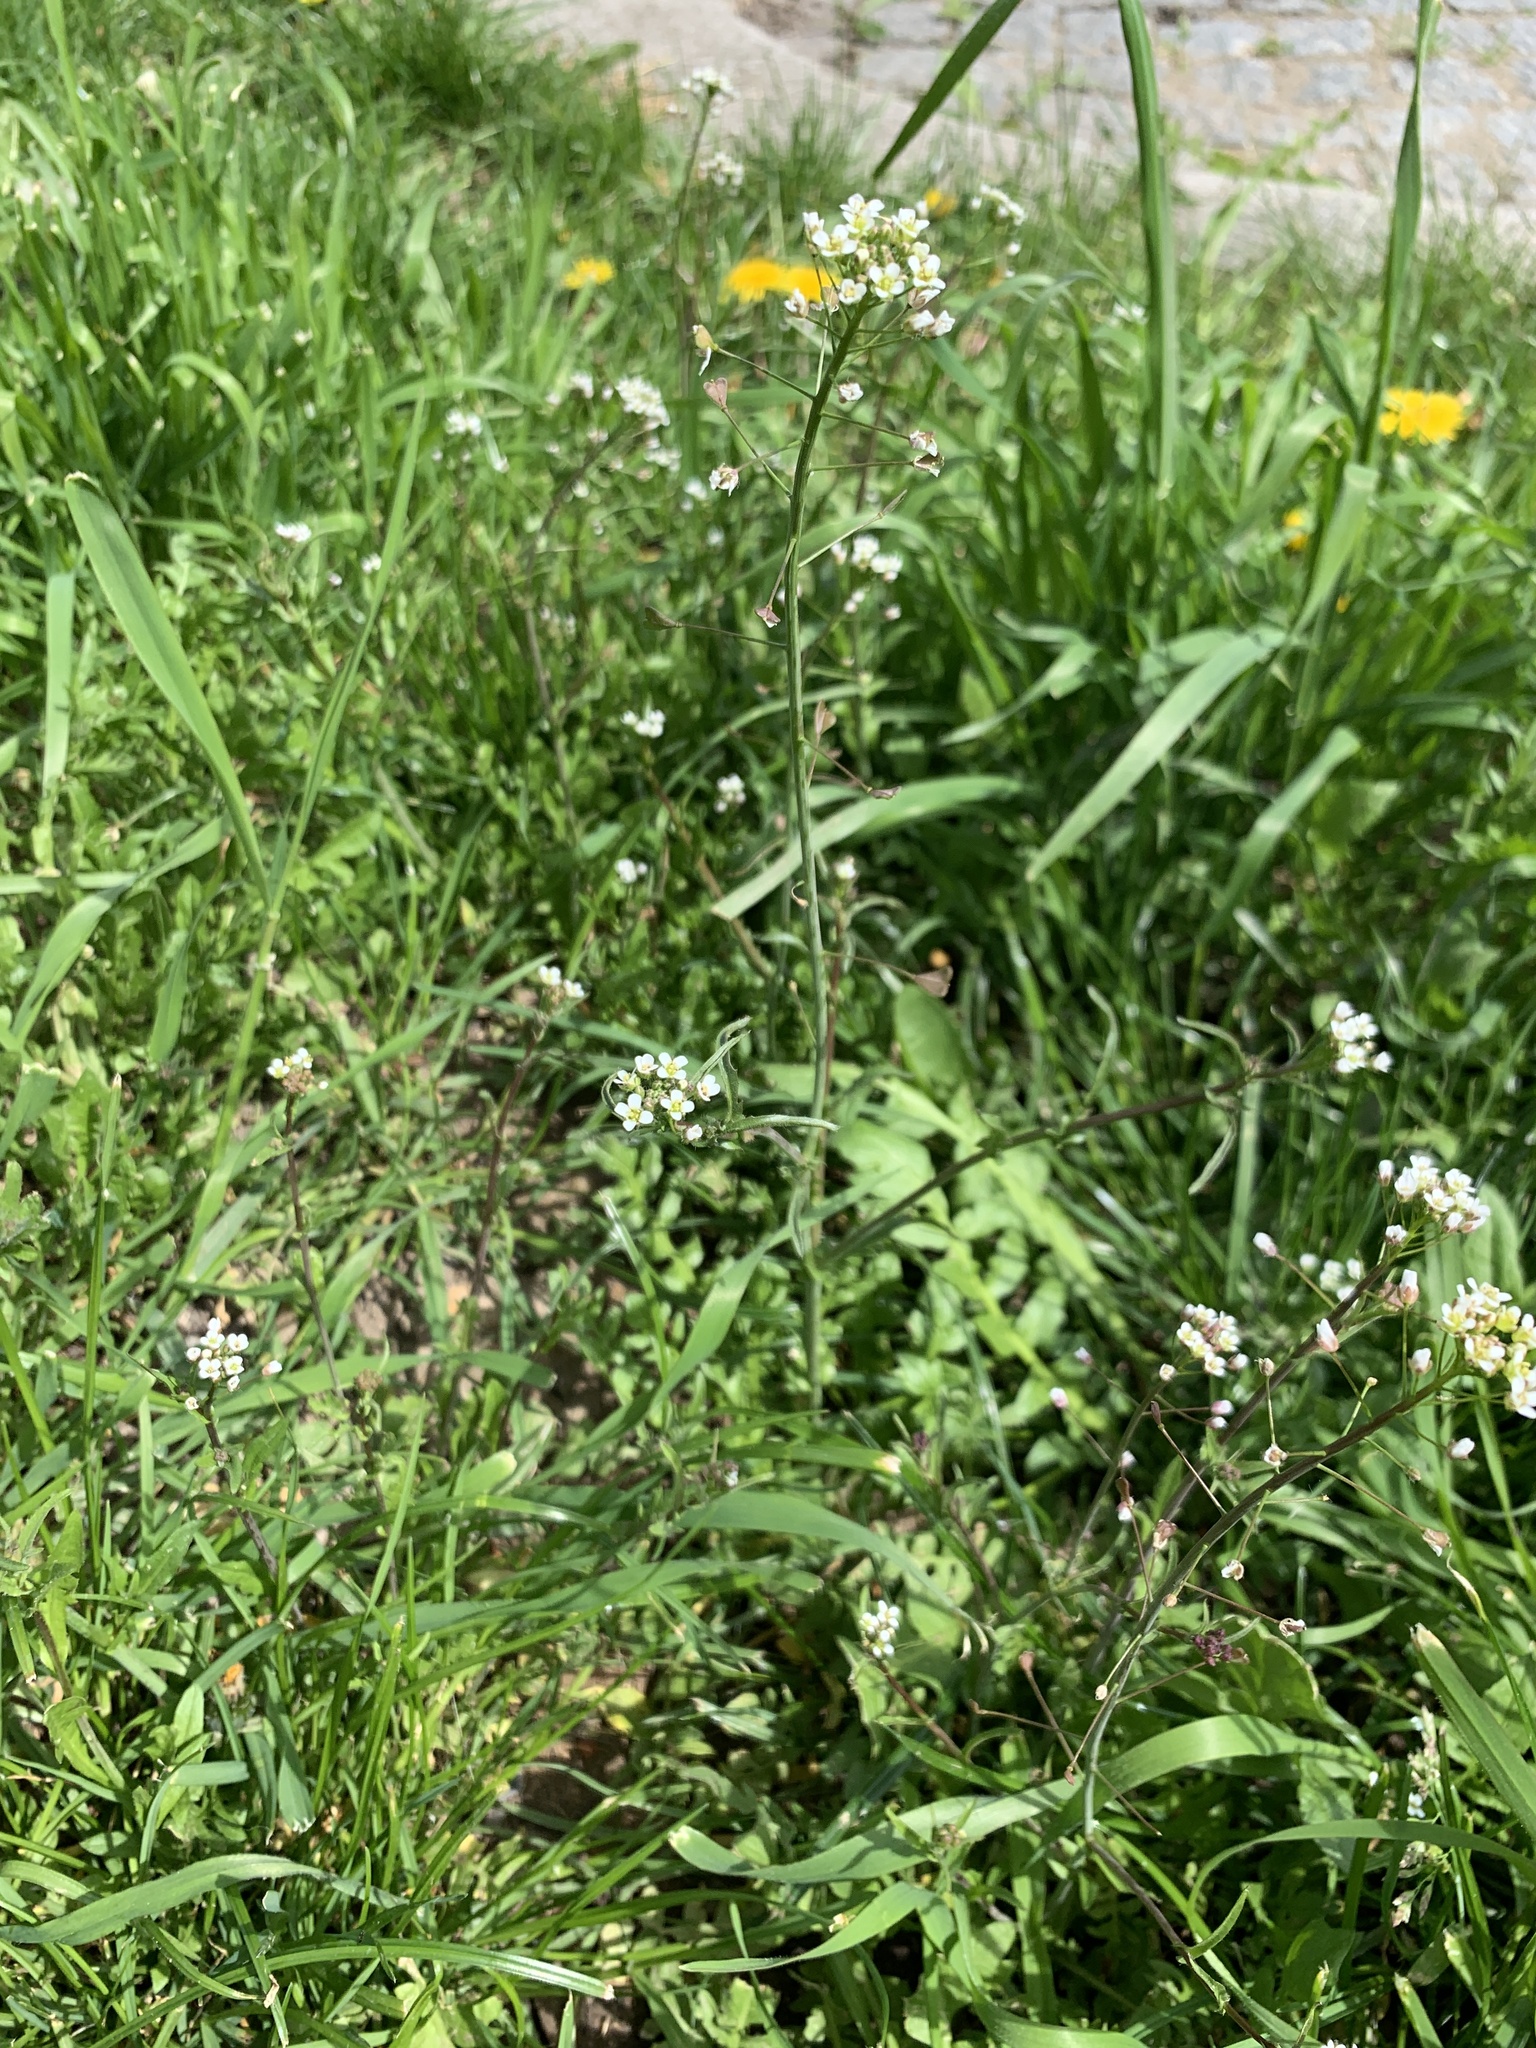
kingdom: Plantae
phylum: Tracheophyta
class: Magnoliopsida
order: Brassicales
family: Brassicaceae
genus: Capsella
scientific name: Capsella bursa-pastoris
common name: Shepherd's purse
